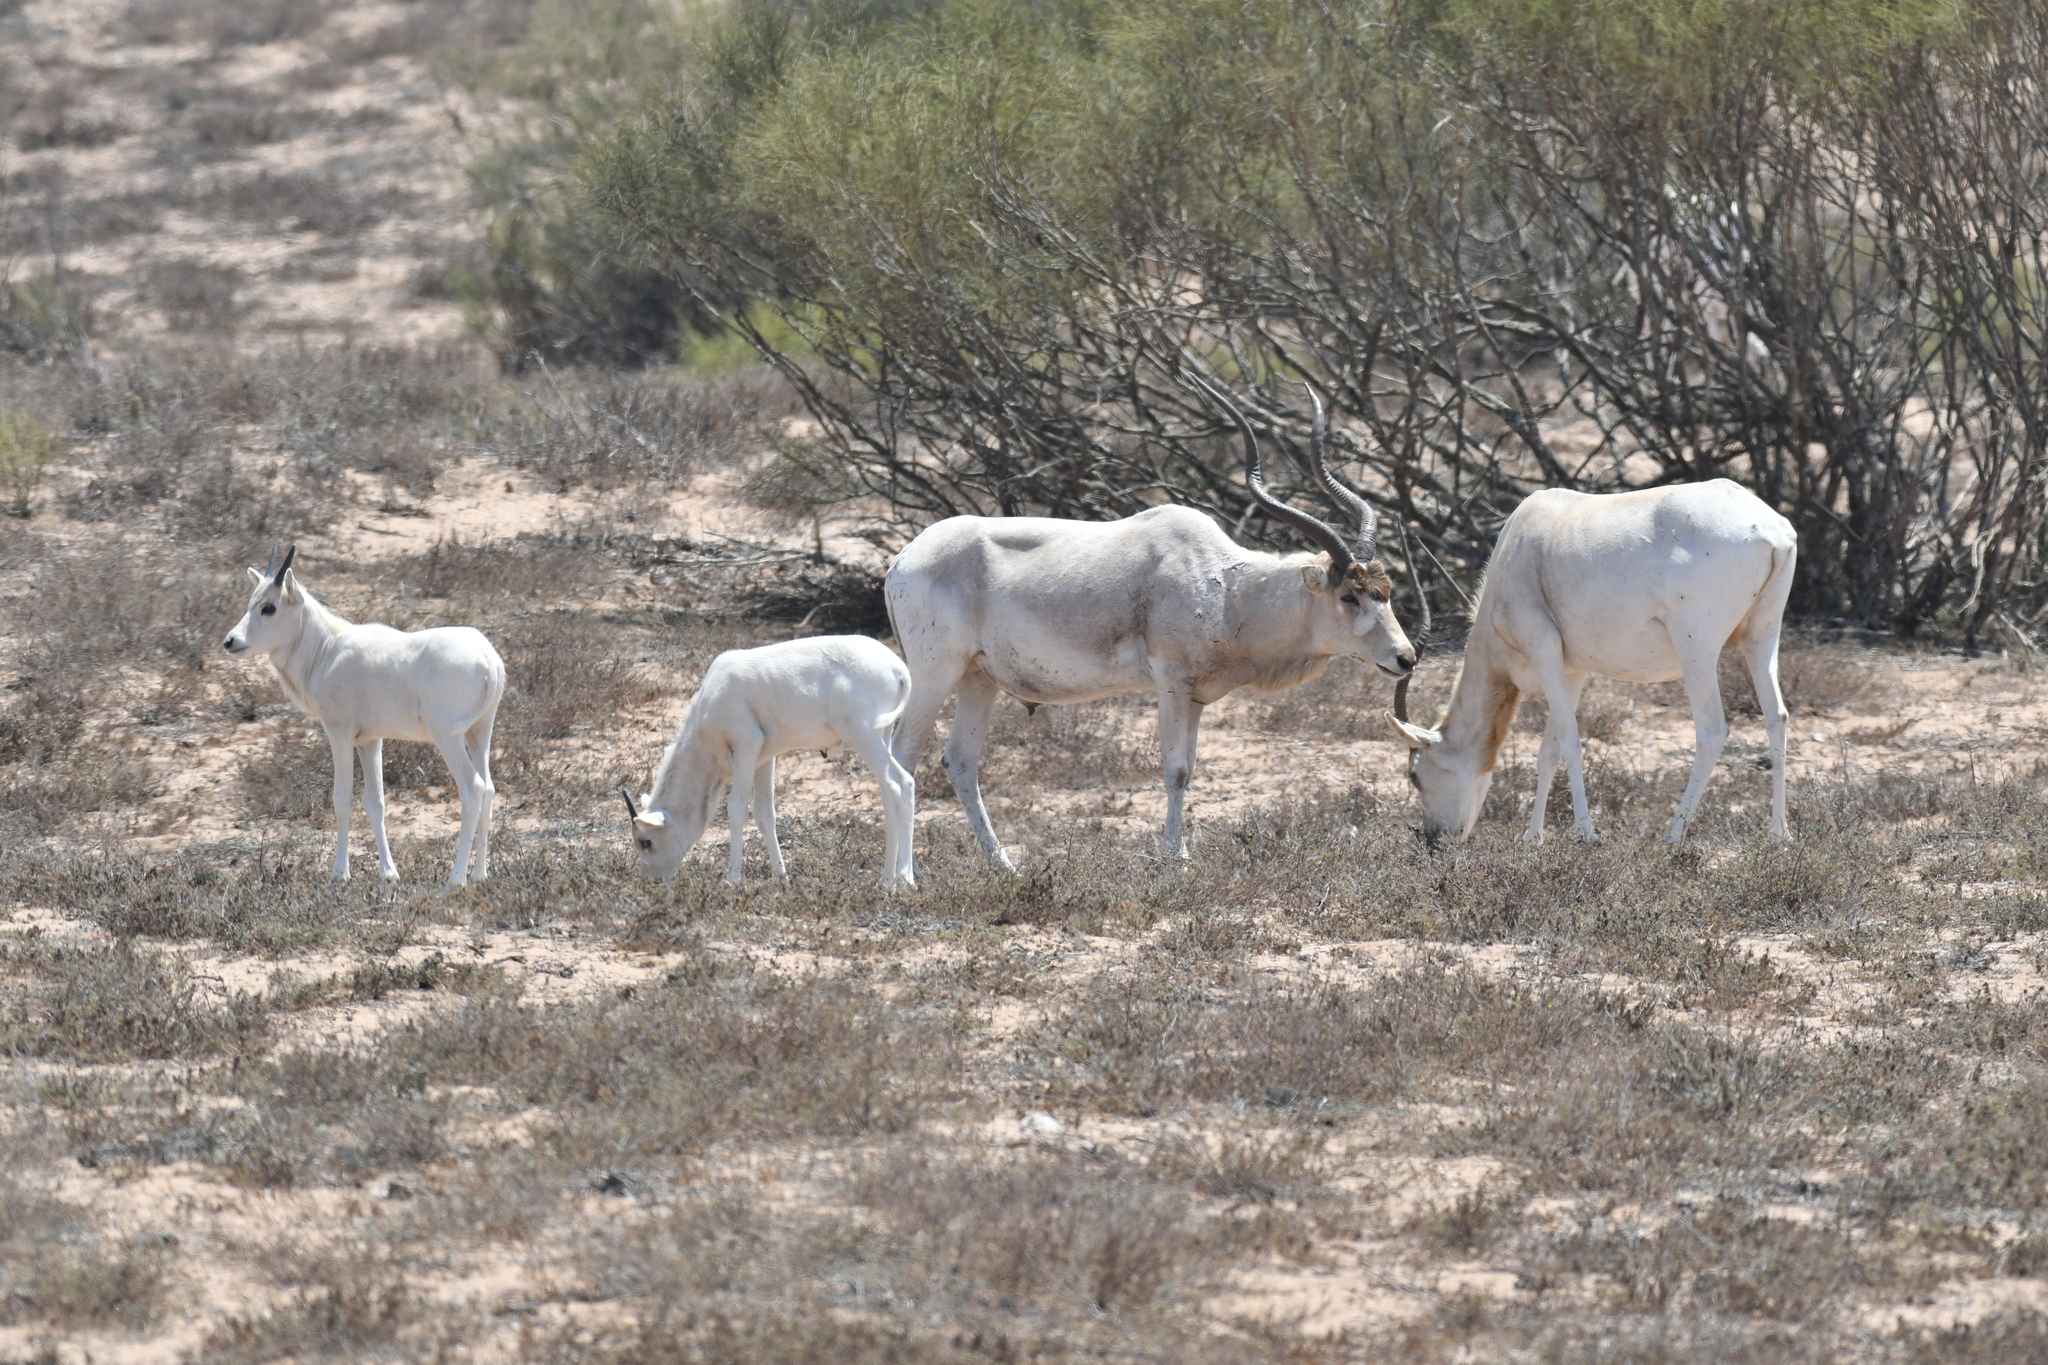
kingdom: Animalia
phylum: Chordata
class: Mammalia
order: Artiodactyla
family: Bovidae
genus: Addax
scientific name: Addax nasomaculatus
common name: Addax
